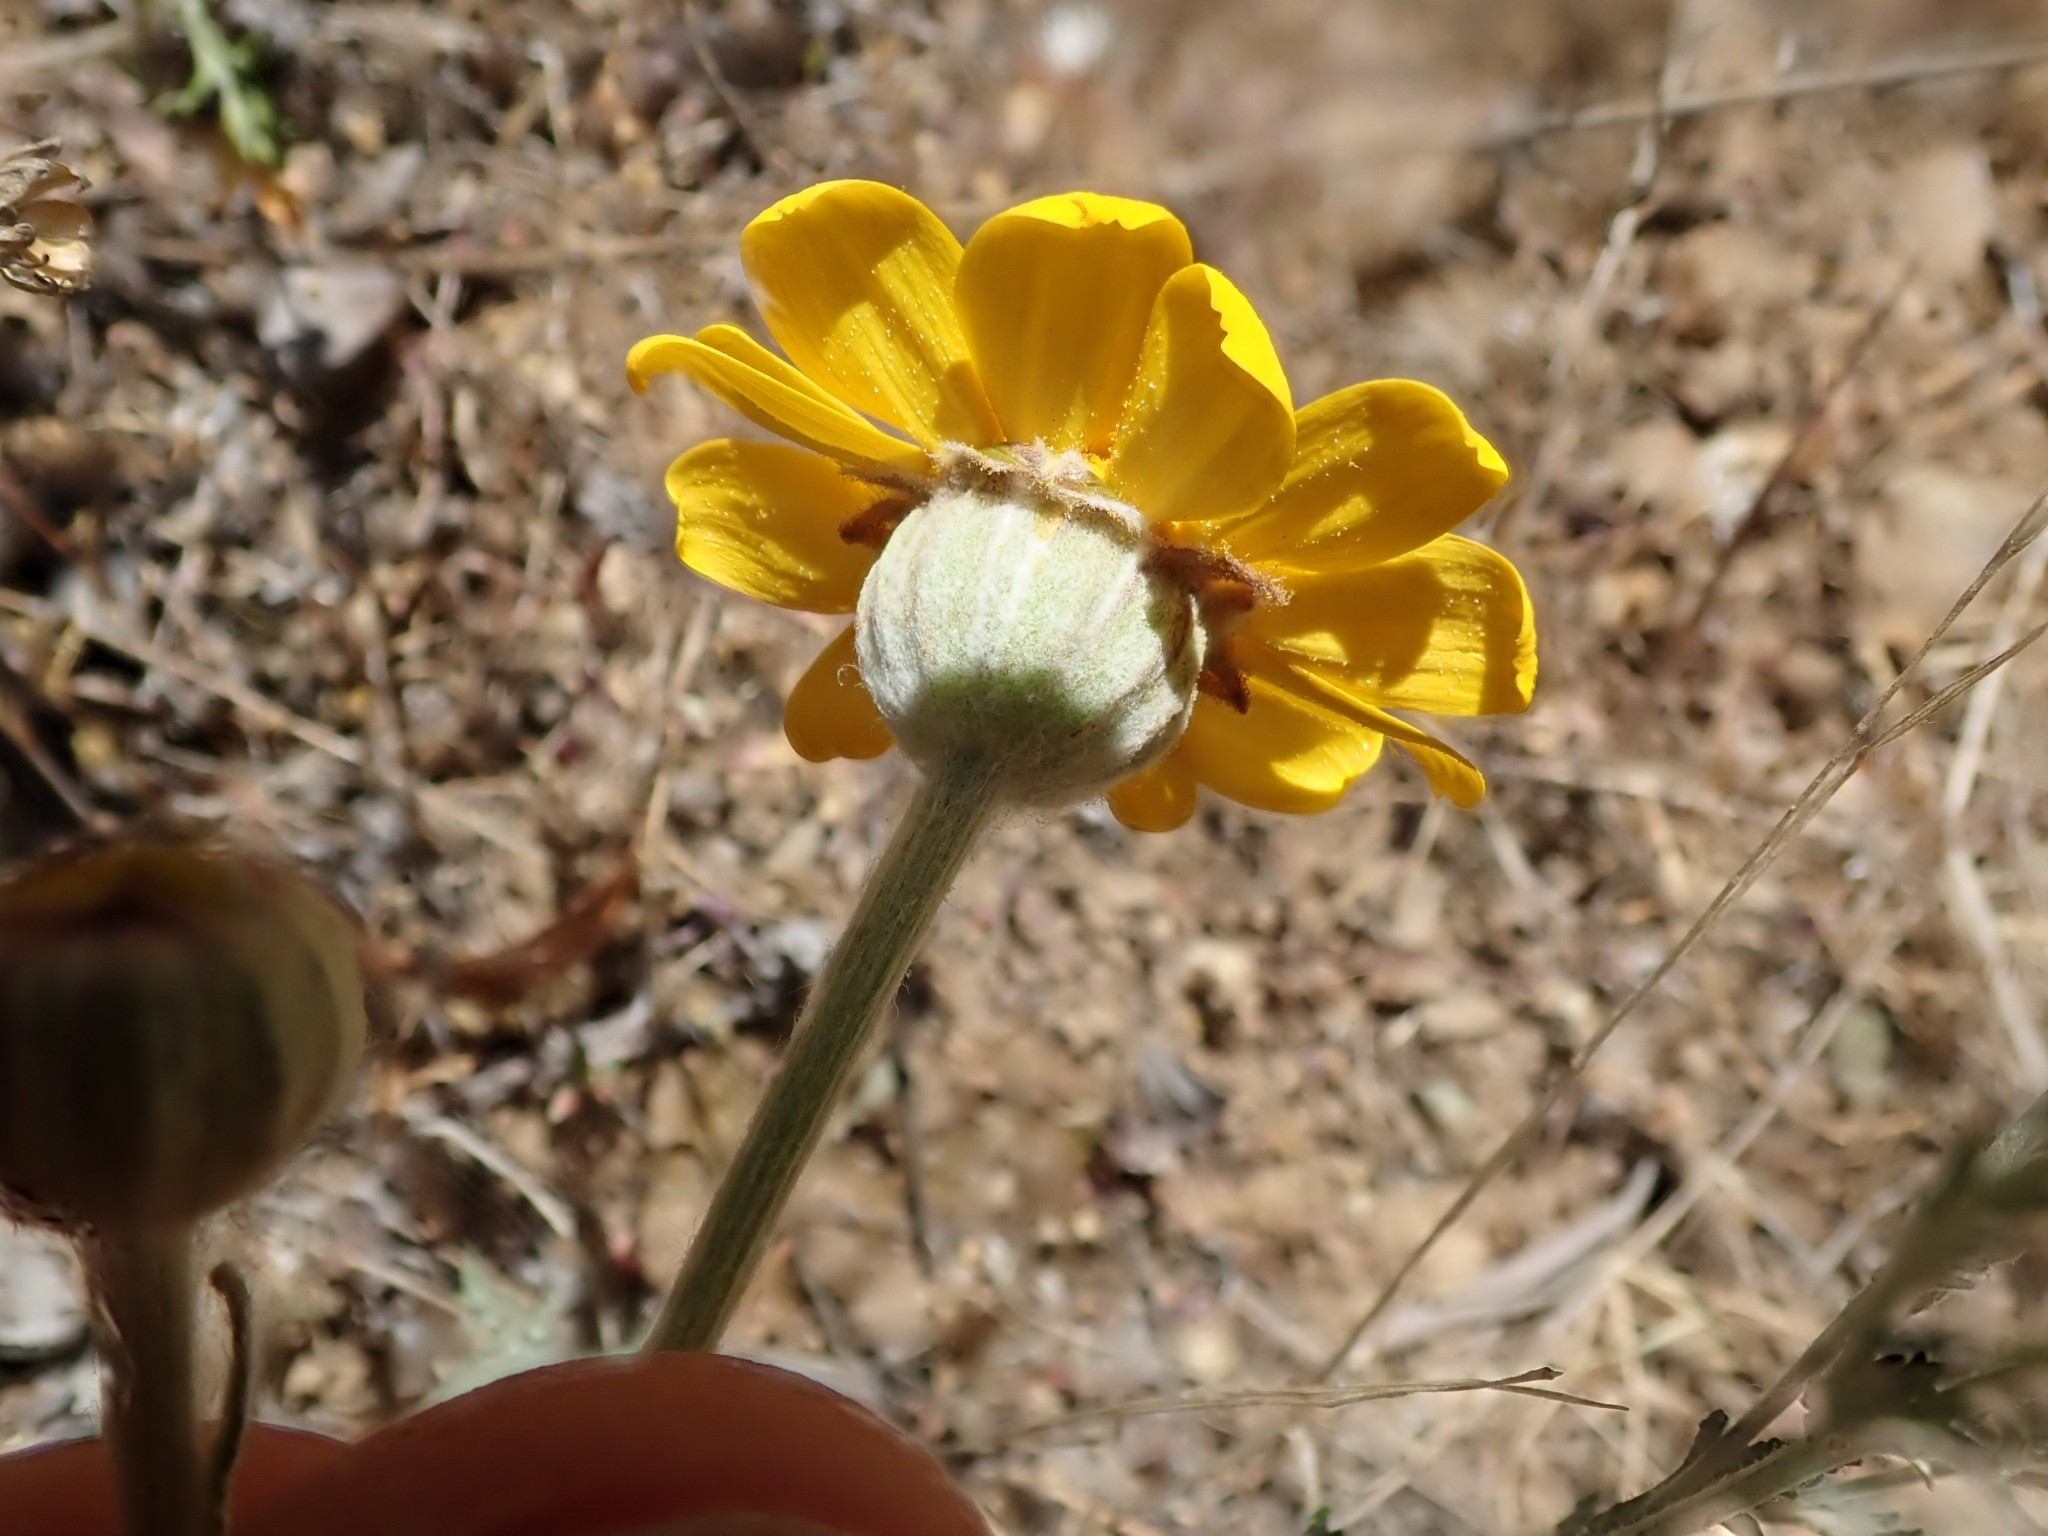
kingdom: Plantae
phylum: Tracheophyta
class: Magnoliopsida
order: Asterales
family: Asteraceae
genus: Eriophyllum
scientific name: Eriophyllum lanatum
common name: Common woolly-sunflower
